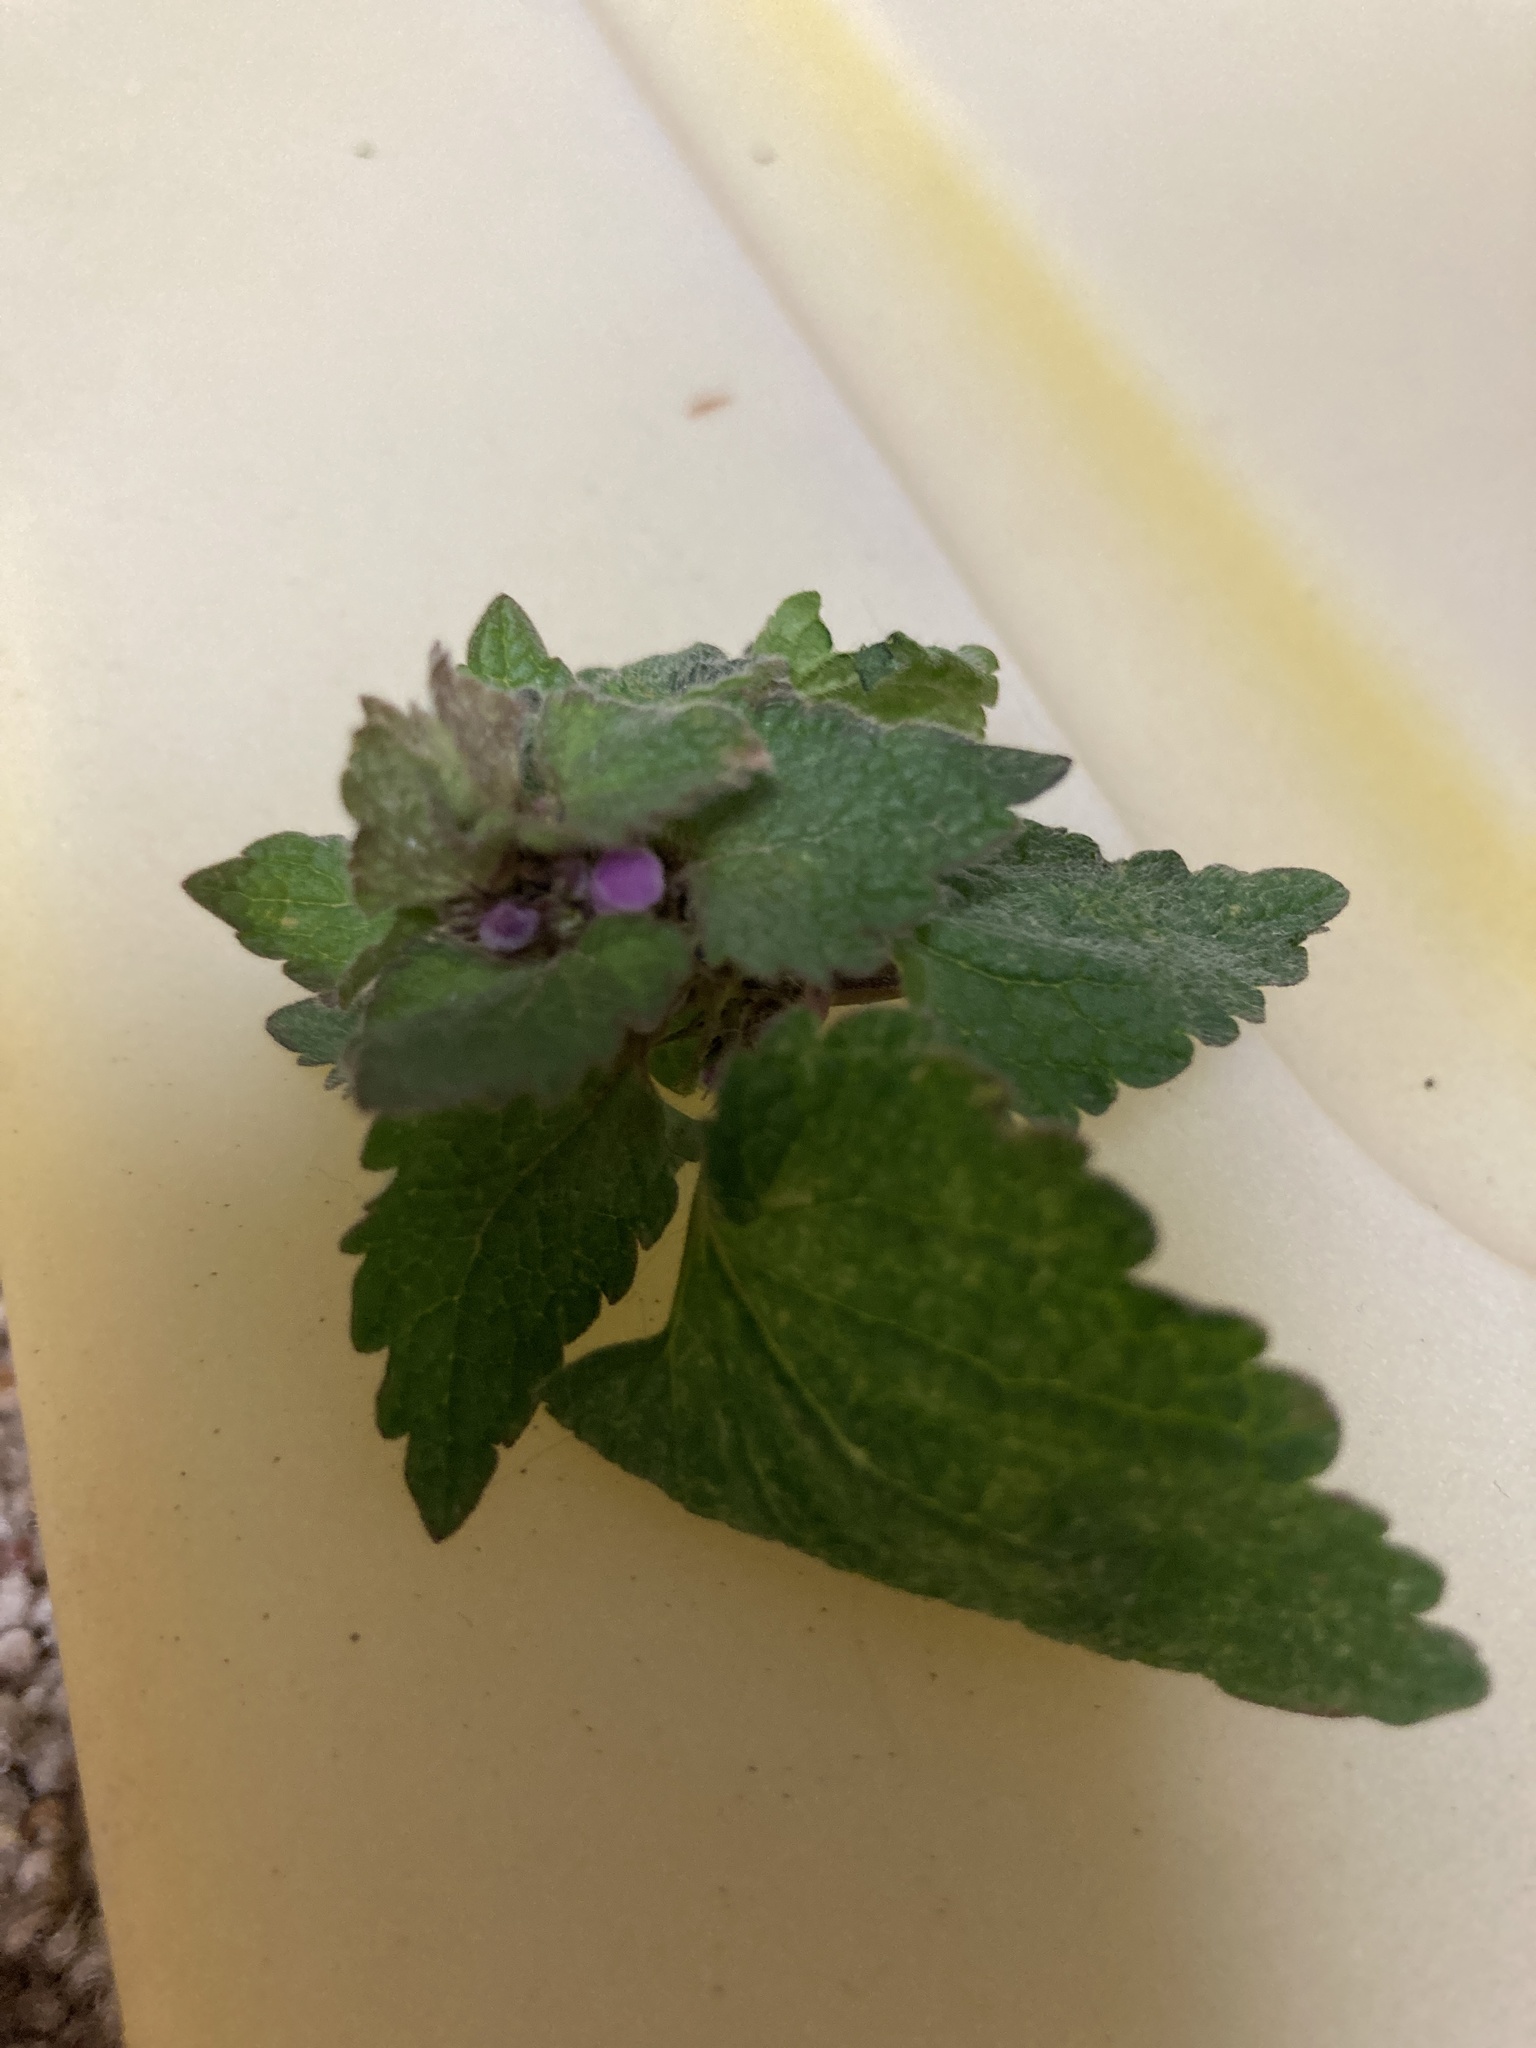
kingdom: Plantae
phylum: Tracheophyta
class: Magnoliopsida
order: Lamiales
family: Lamiaceae
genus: Lamium
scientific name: Lamium purpureum
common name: Red dead-nettle
